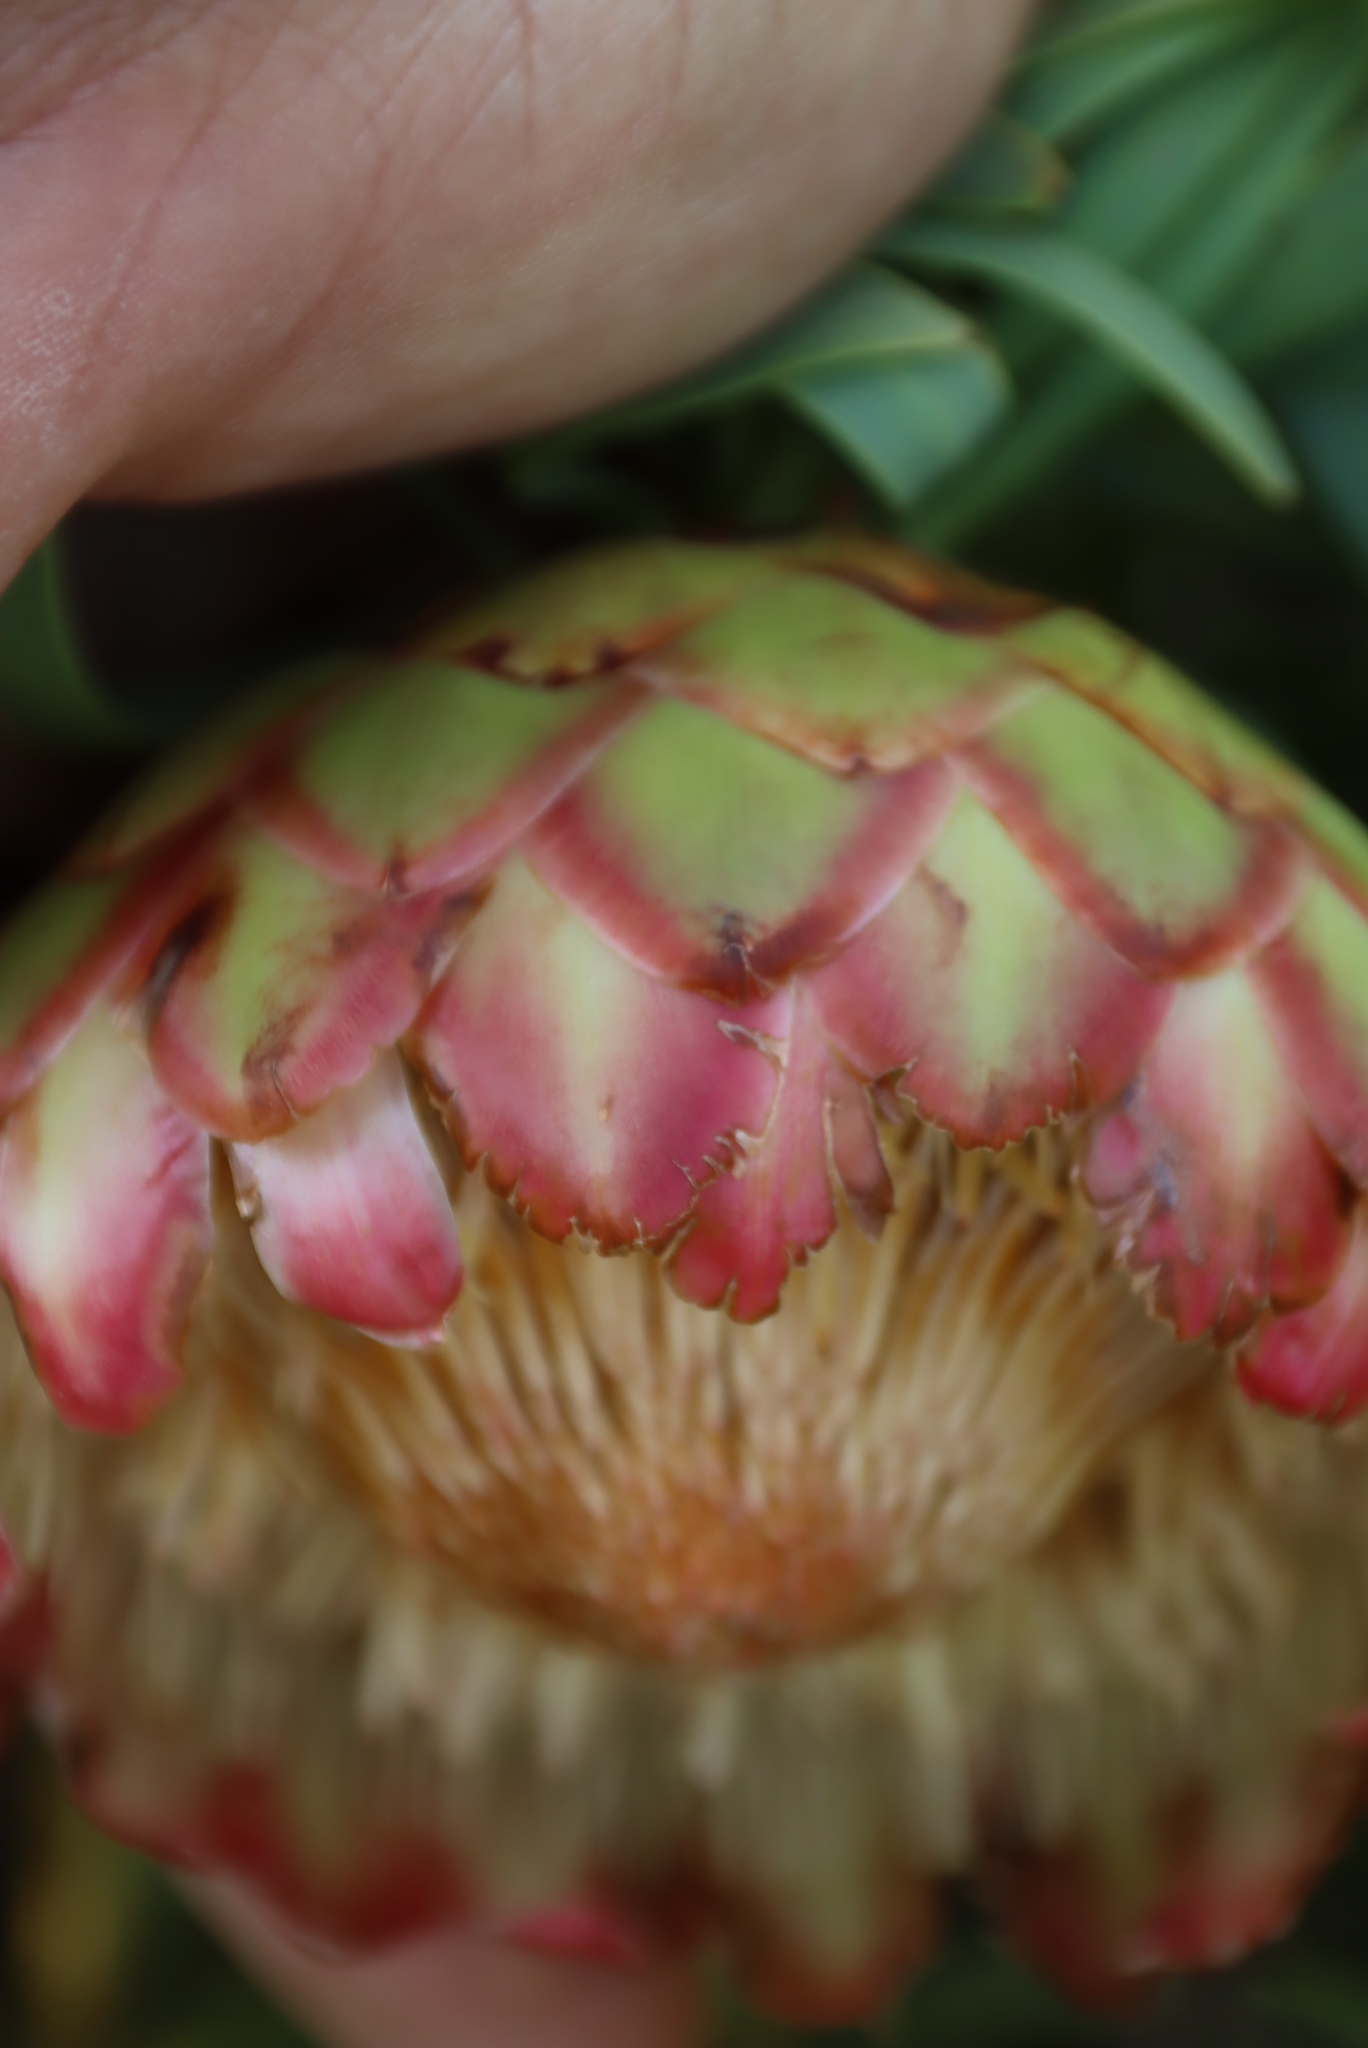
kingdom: Plantae
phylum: Tracheophyta
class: Magnoliopsida
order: Proteales
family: Proteaceae
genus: Protea
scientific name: Protea namaquana
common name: Kamiesberg sugarbush
